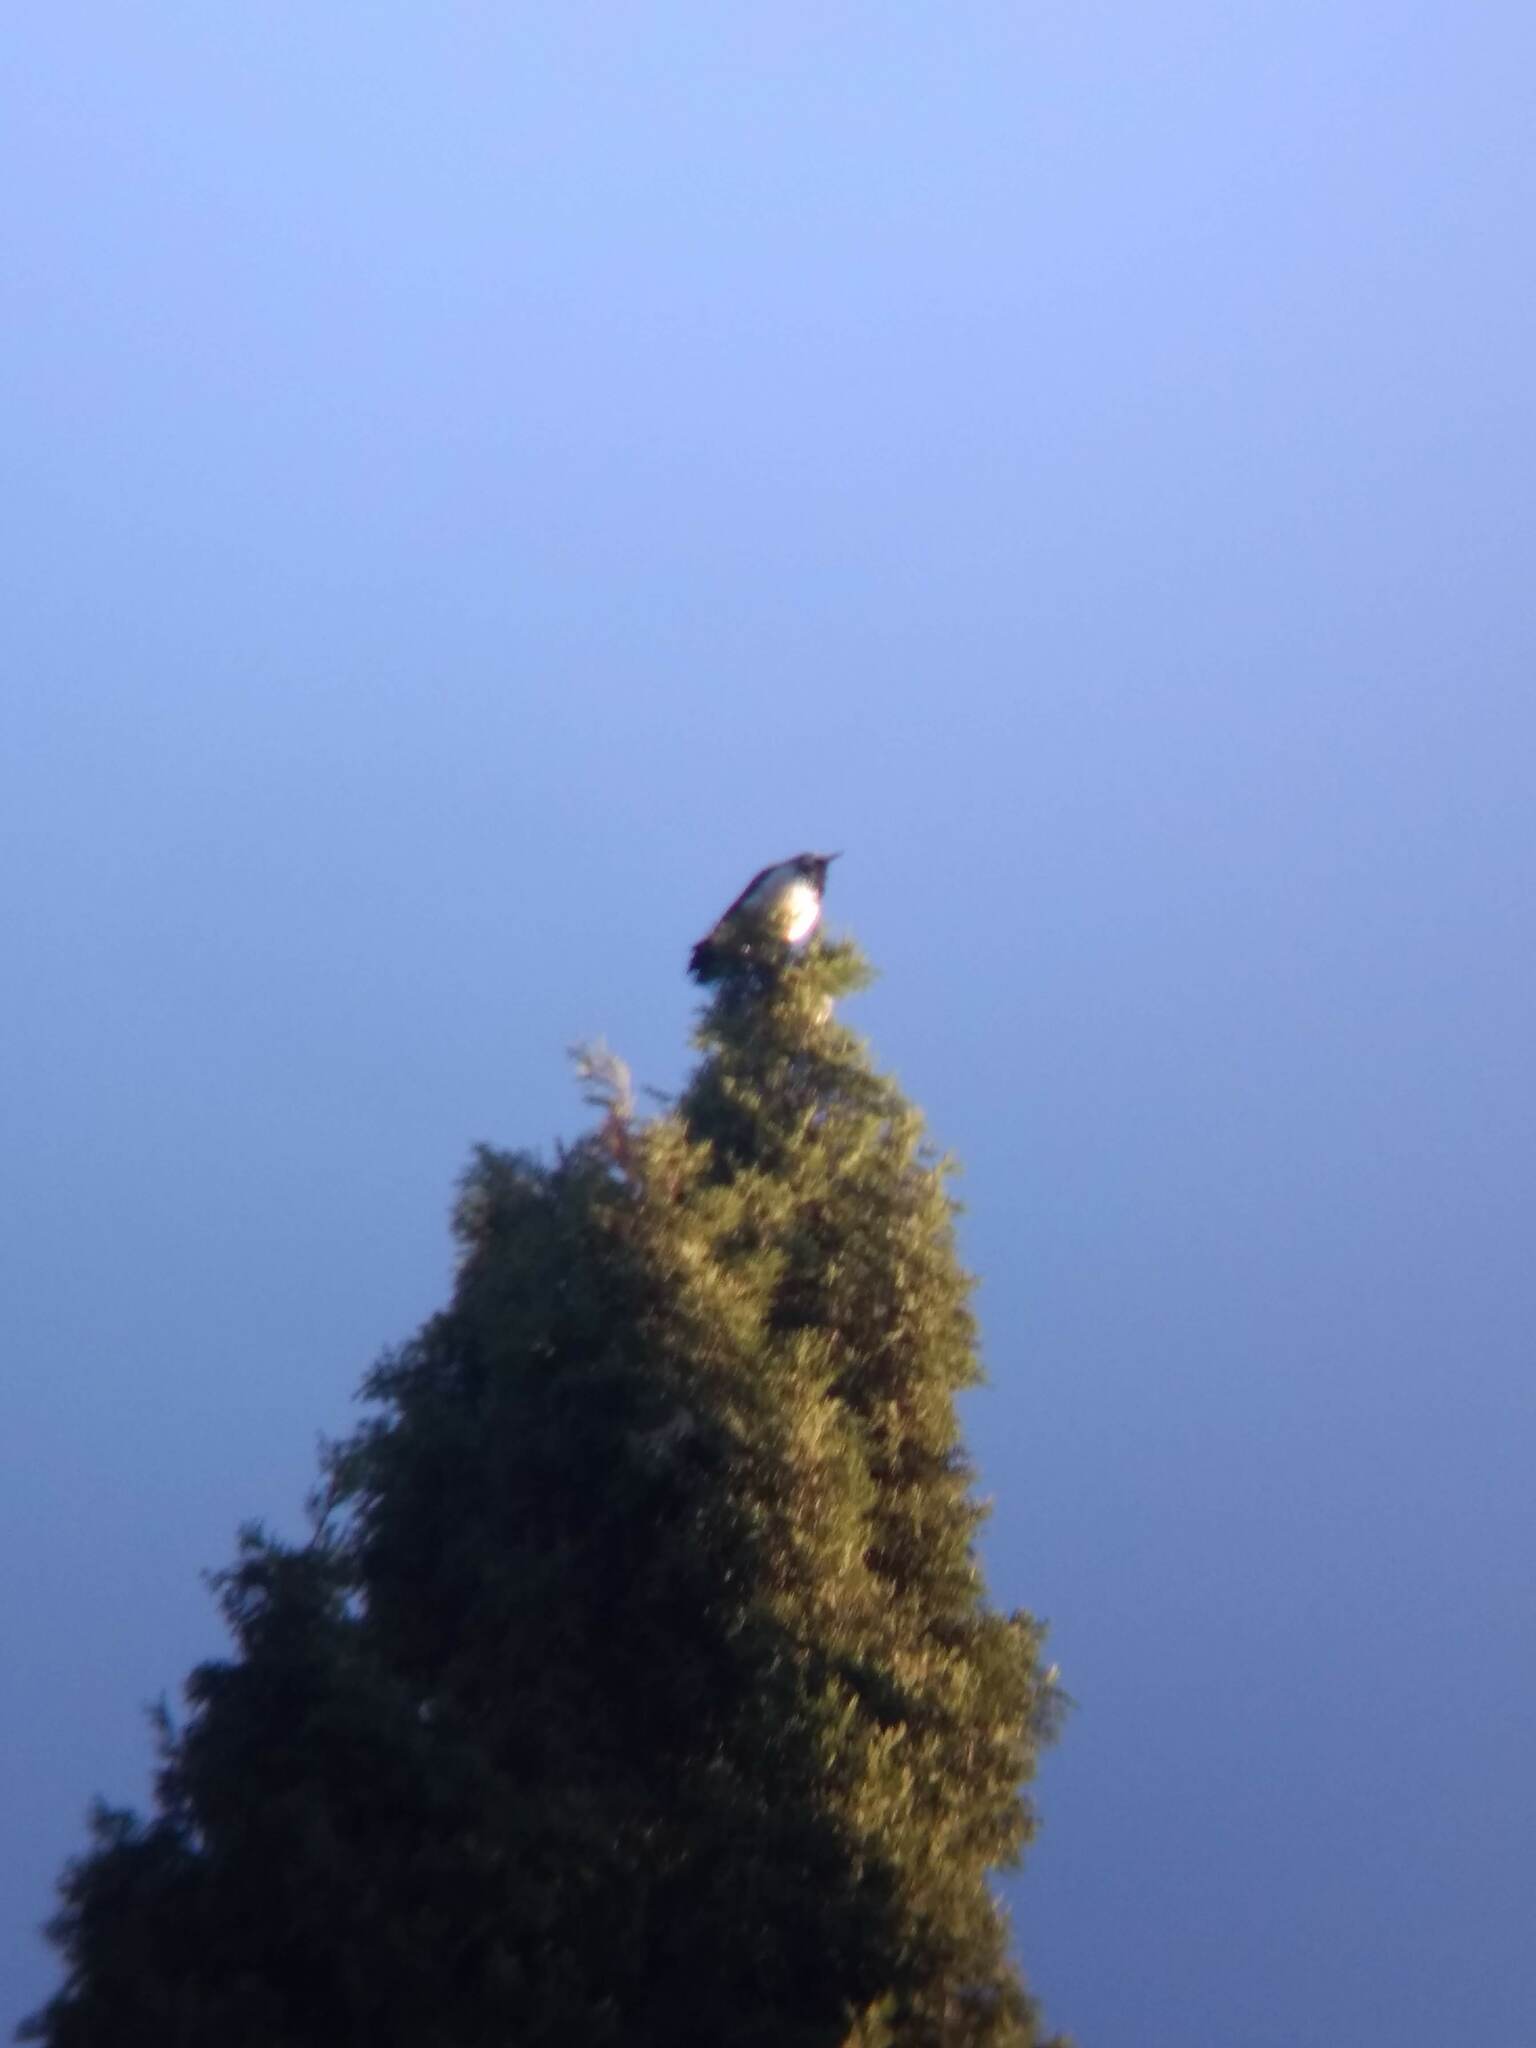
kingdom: Animalia
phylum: Chordata
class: Aves
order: Piciformes
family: Picidae
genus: Melanerpes
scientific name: Melanerpes formicivorus
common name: Acorn woodpecker
